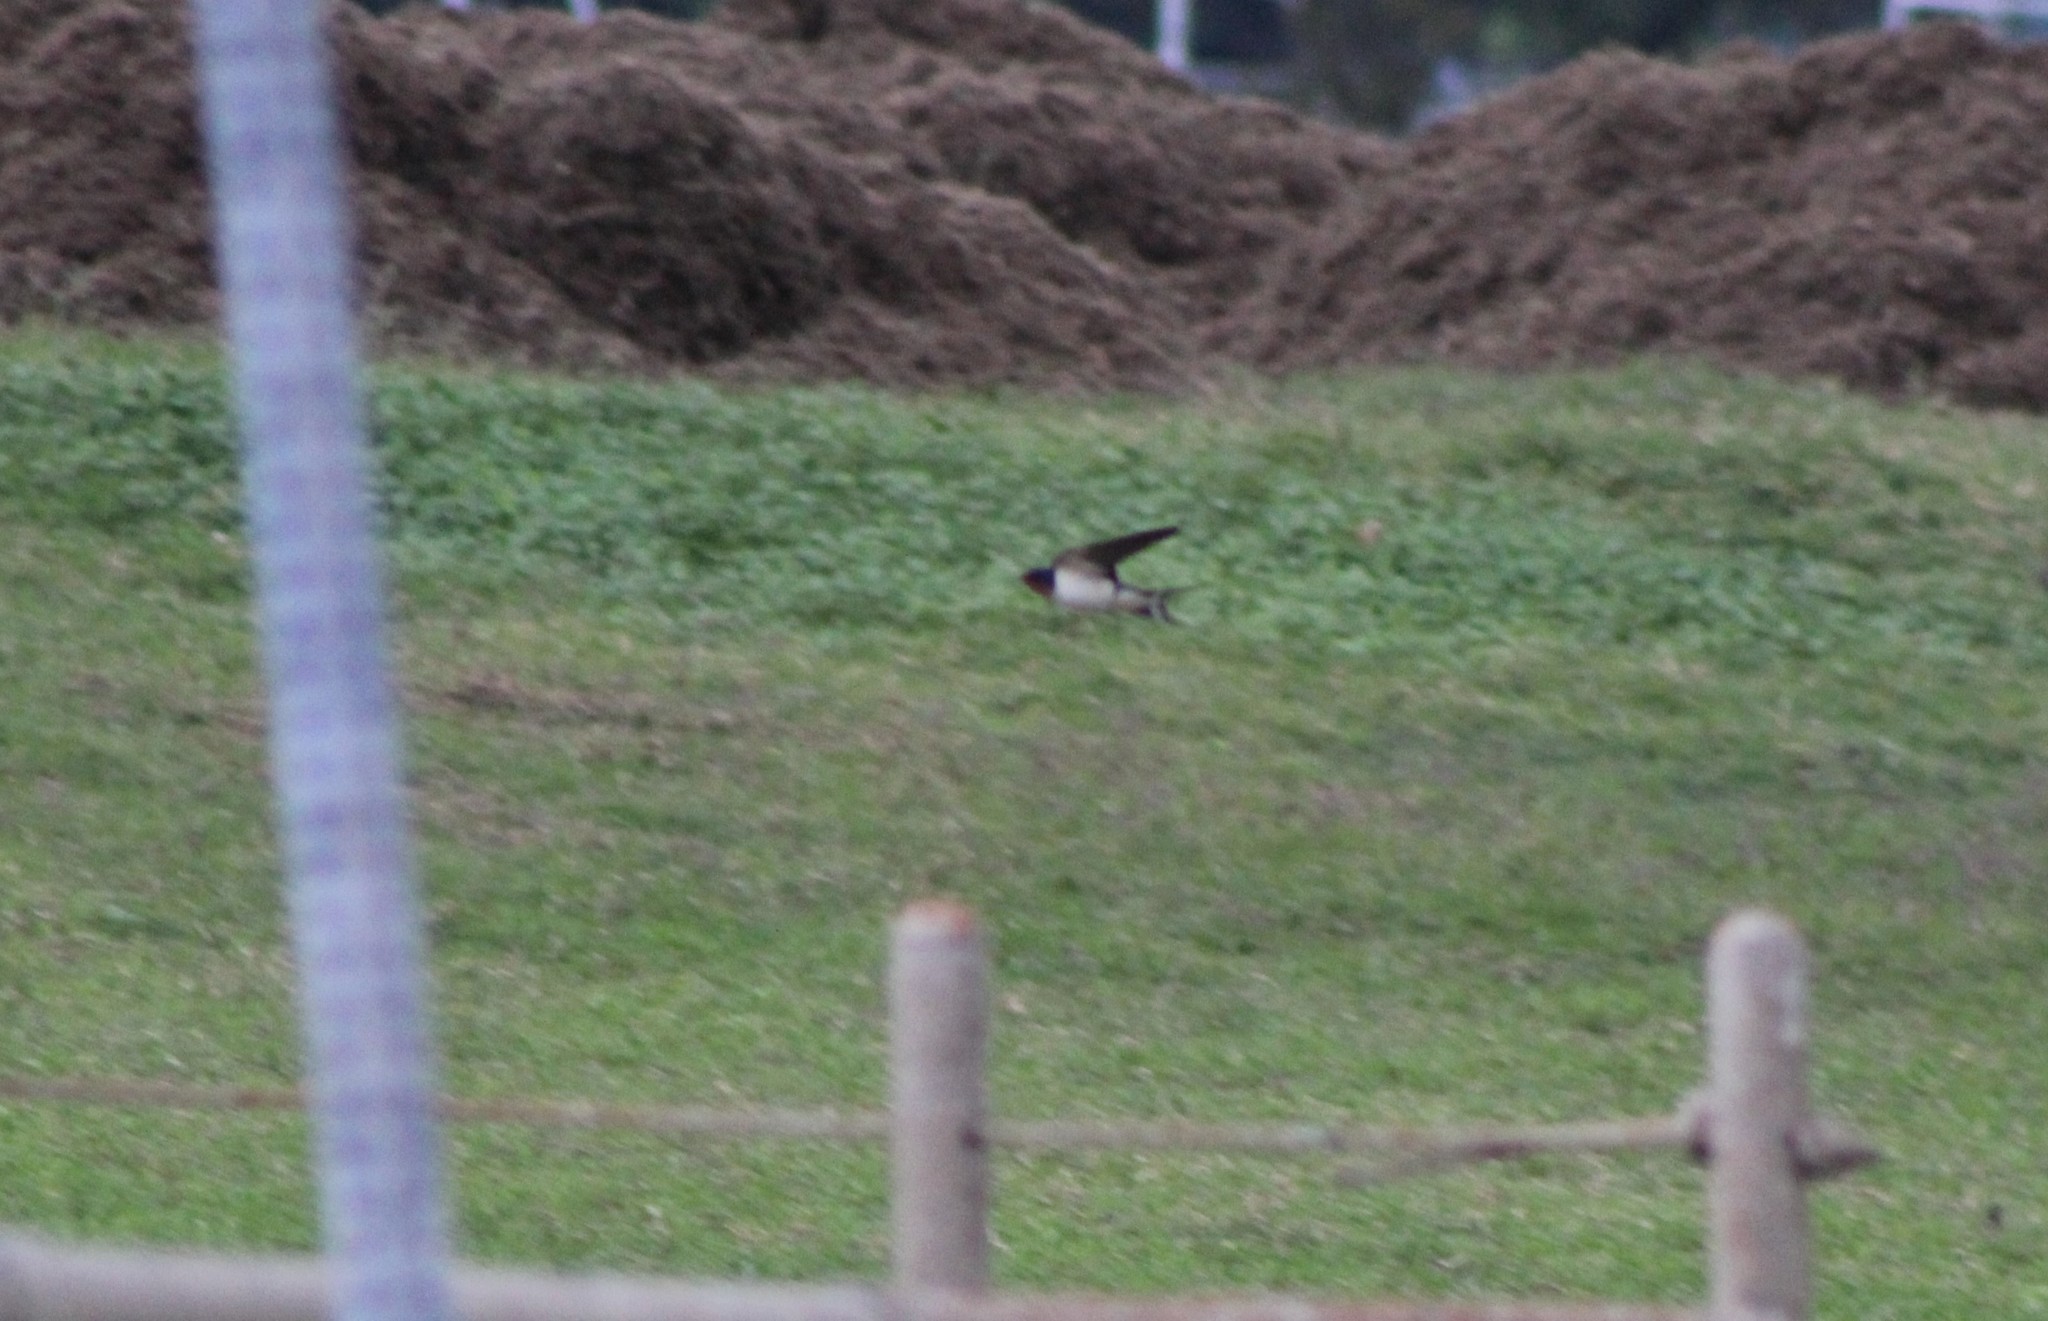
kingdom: Animalia
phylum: Chordata
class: Aves
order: Passeriformes
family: Hirundinidae
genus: Hirundo
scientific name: Hirundo rustica
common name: Barn swallow
